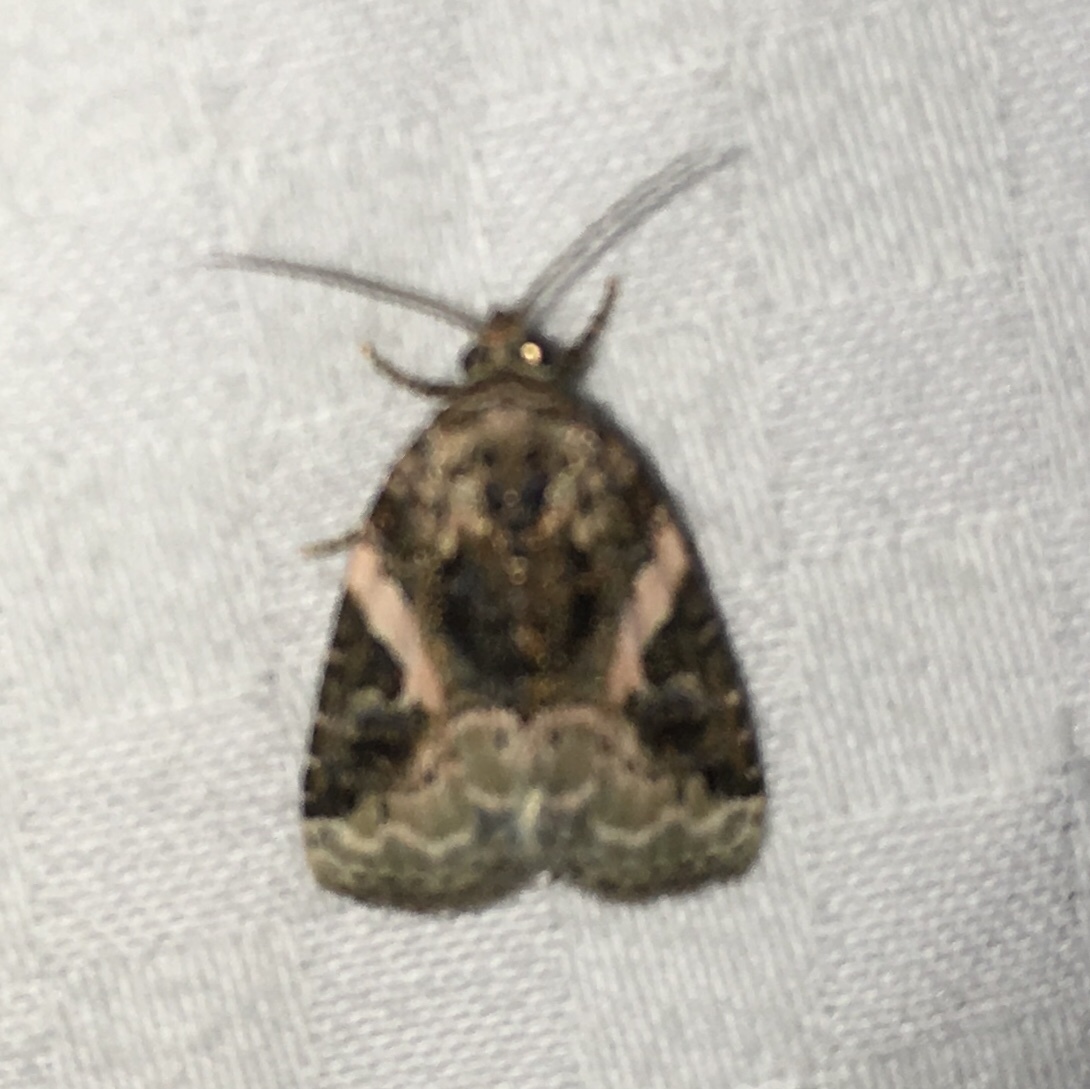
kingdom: Animalia
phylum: Arthropoda
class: Insecta
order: Lepidoptera
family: Noctuidae
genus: Pseudeustrotia
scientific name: Pseudeustrotia carneola
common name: Pink-barred lithacodia moth
